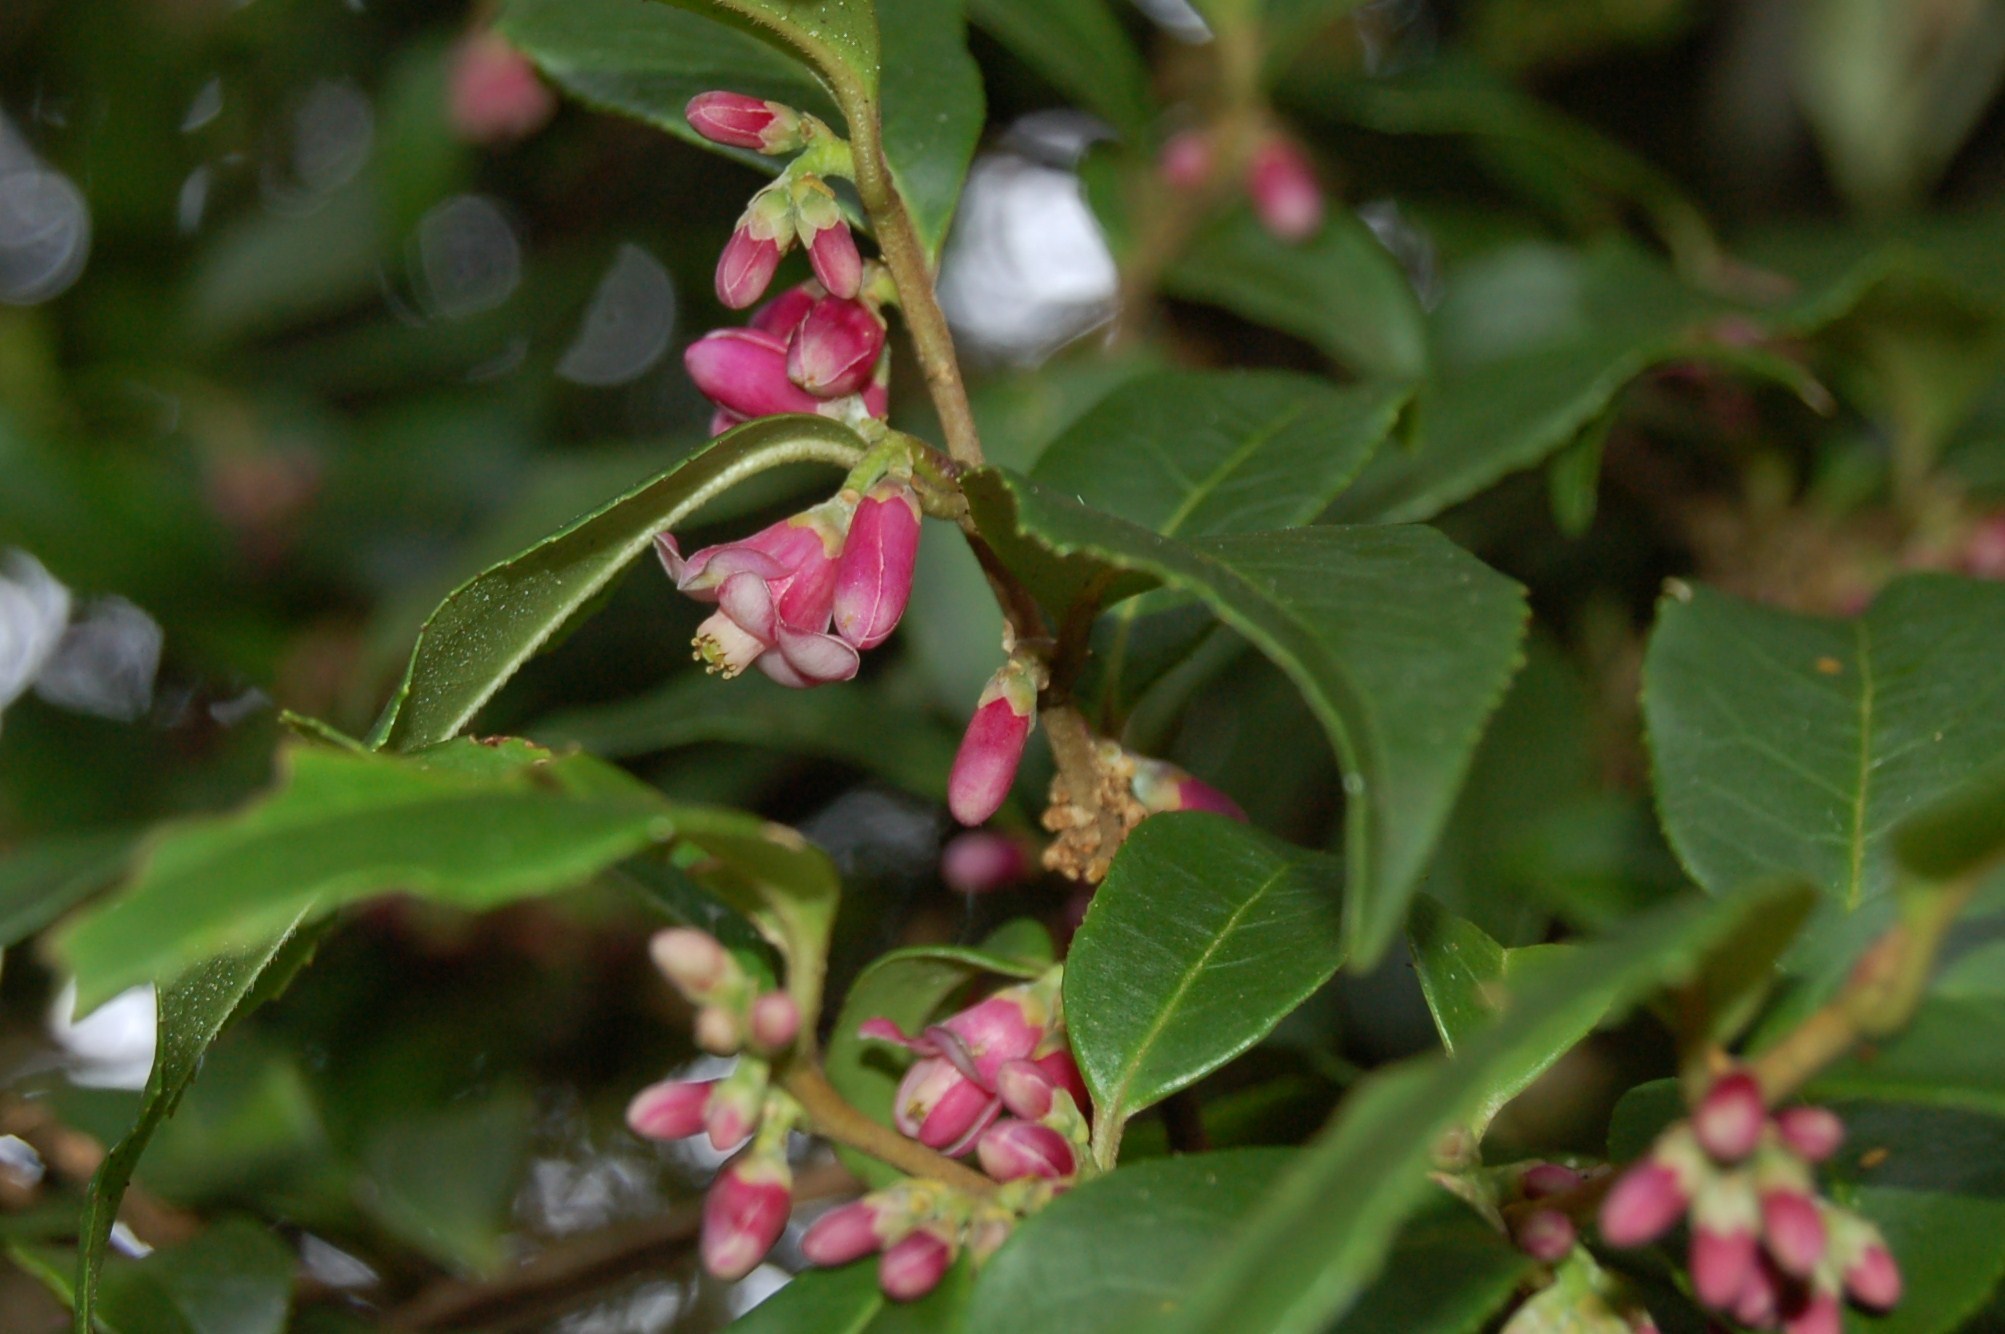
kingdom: Plantae
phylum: Tracheophyta
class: Magnoliopsida
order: Ericales
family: Symplocaceae
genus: Symplocos
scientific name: Symplocos breedlovei
